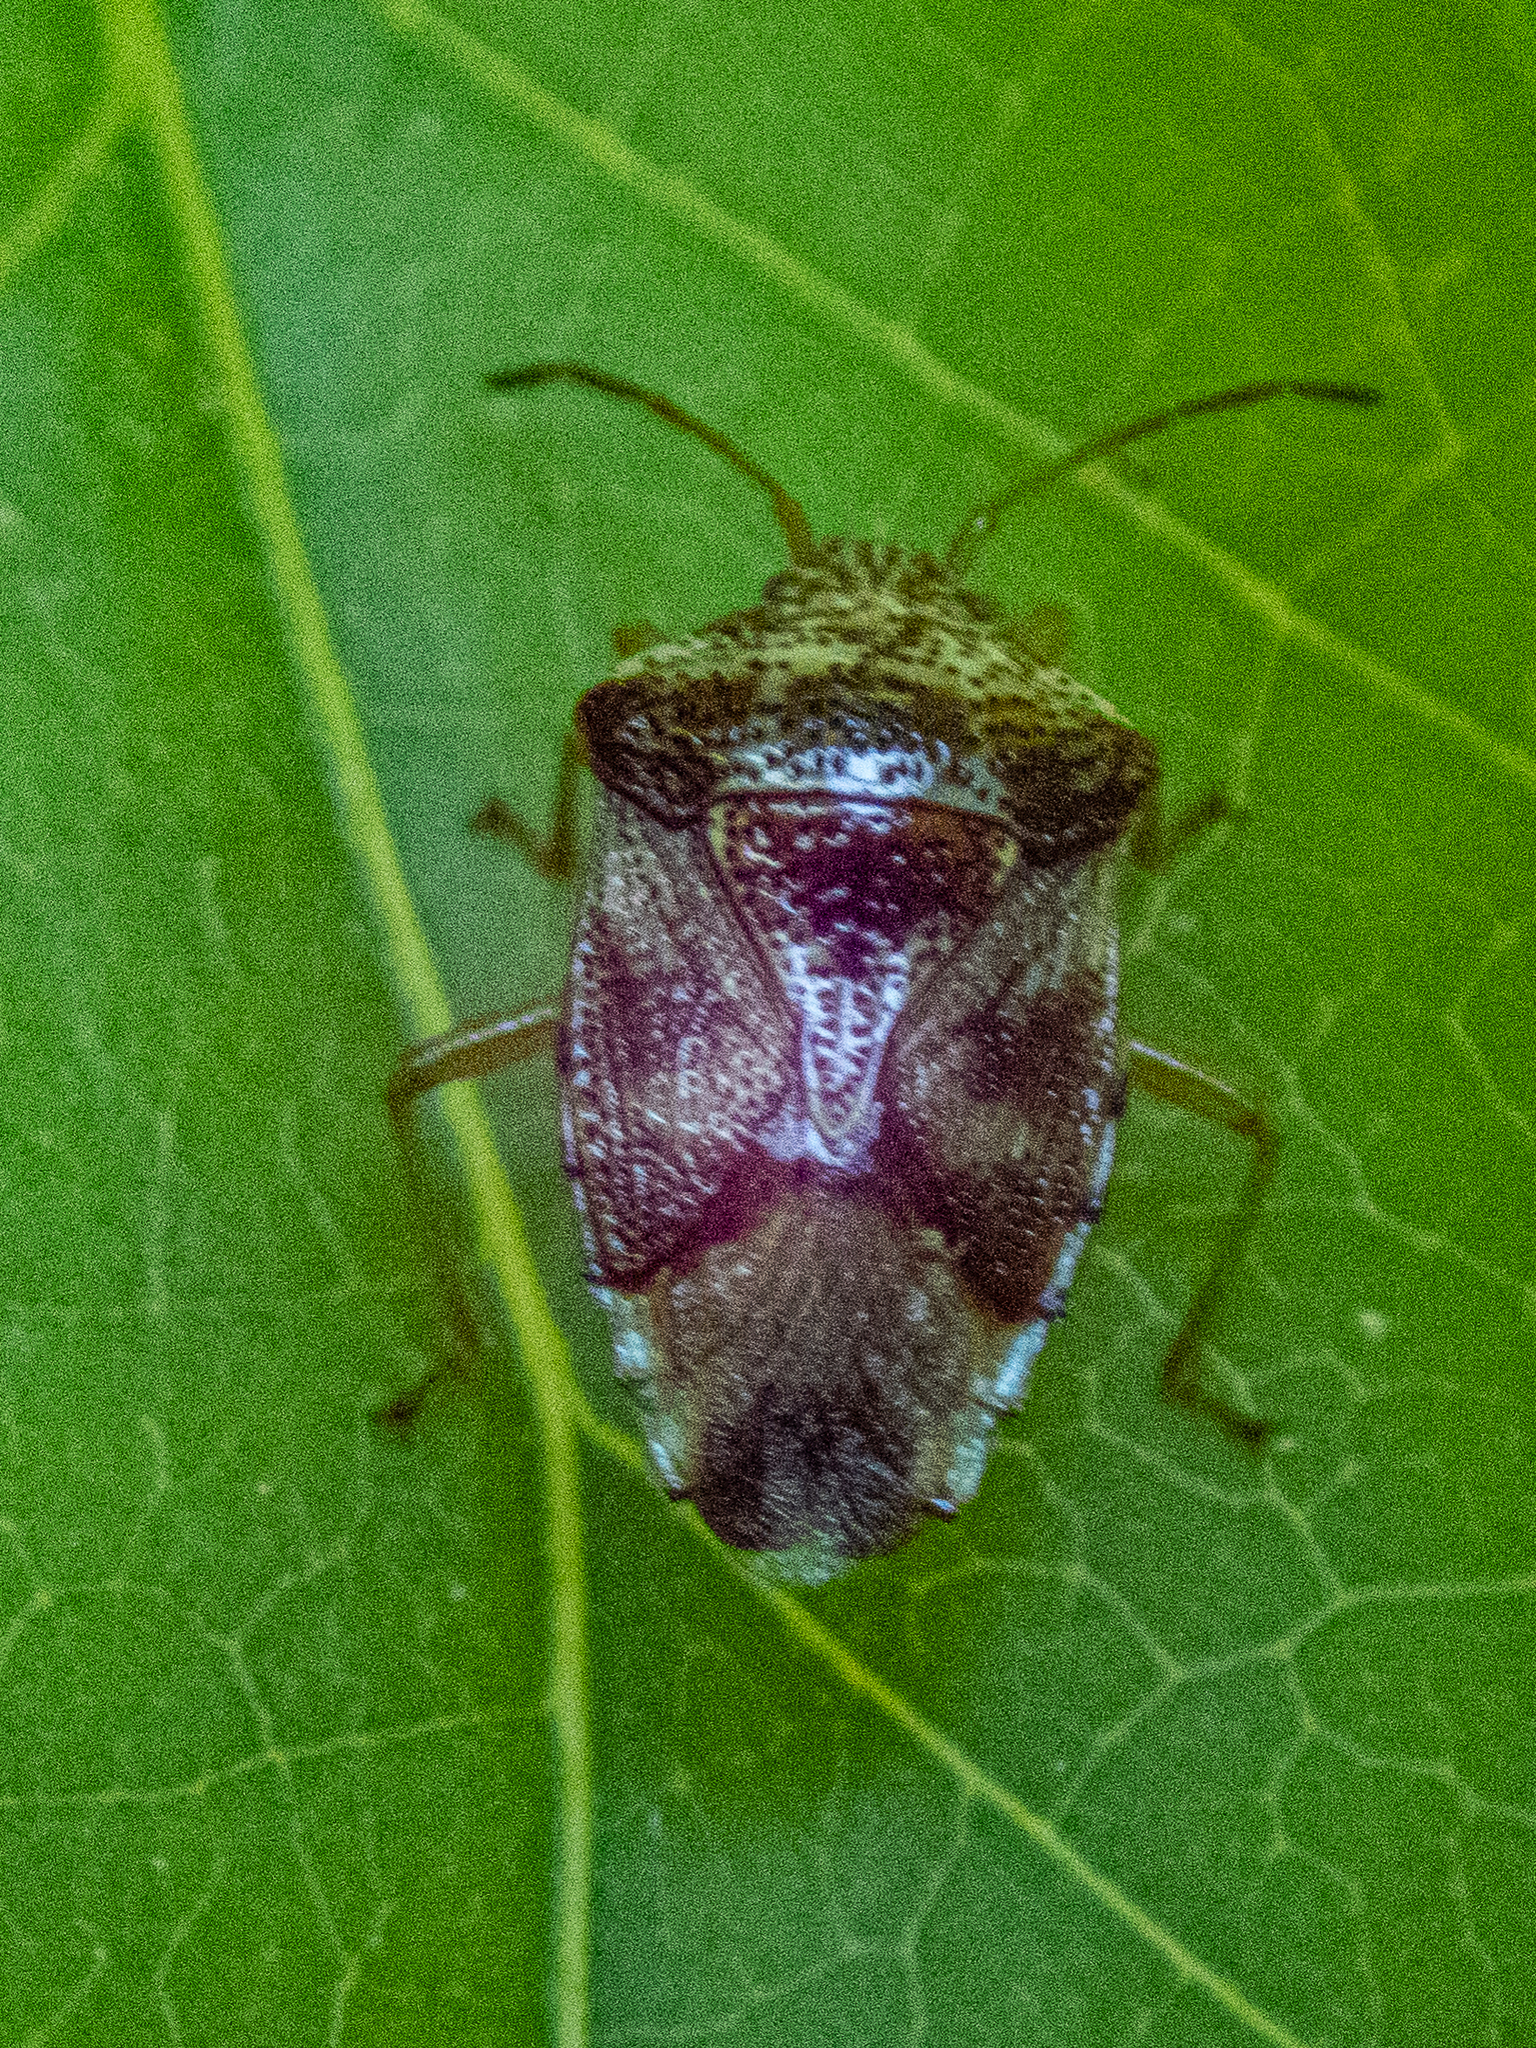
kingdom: Animalia
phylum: Arthropoda
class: Insecta
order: Hemiptera
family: Acanthosomatidae
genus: Elasmucha
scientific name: Elasmucha lateralis
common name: Shield bug
